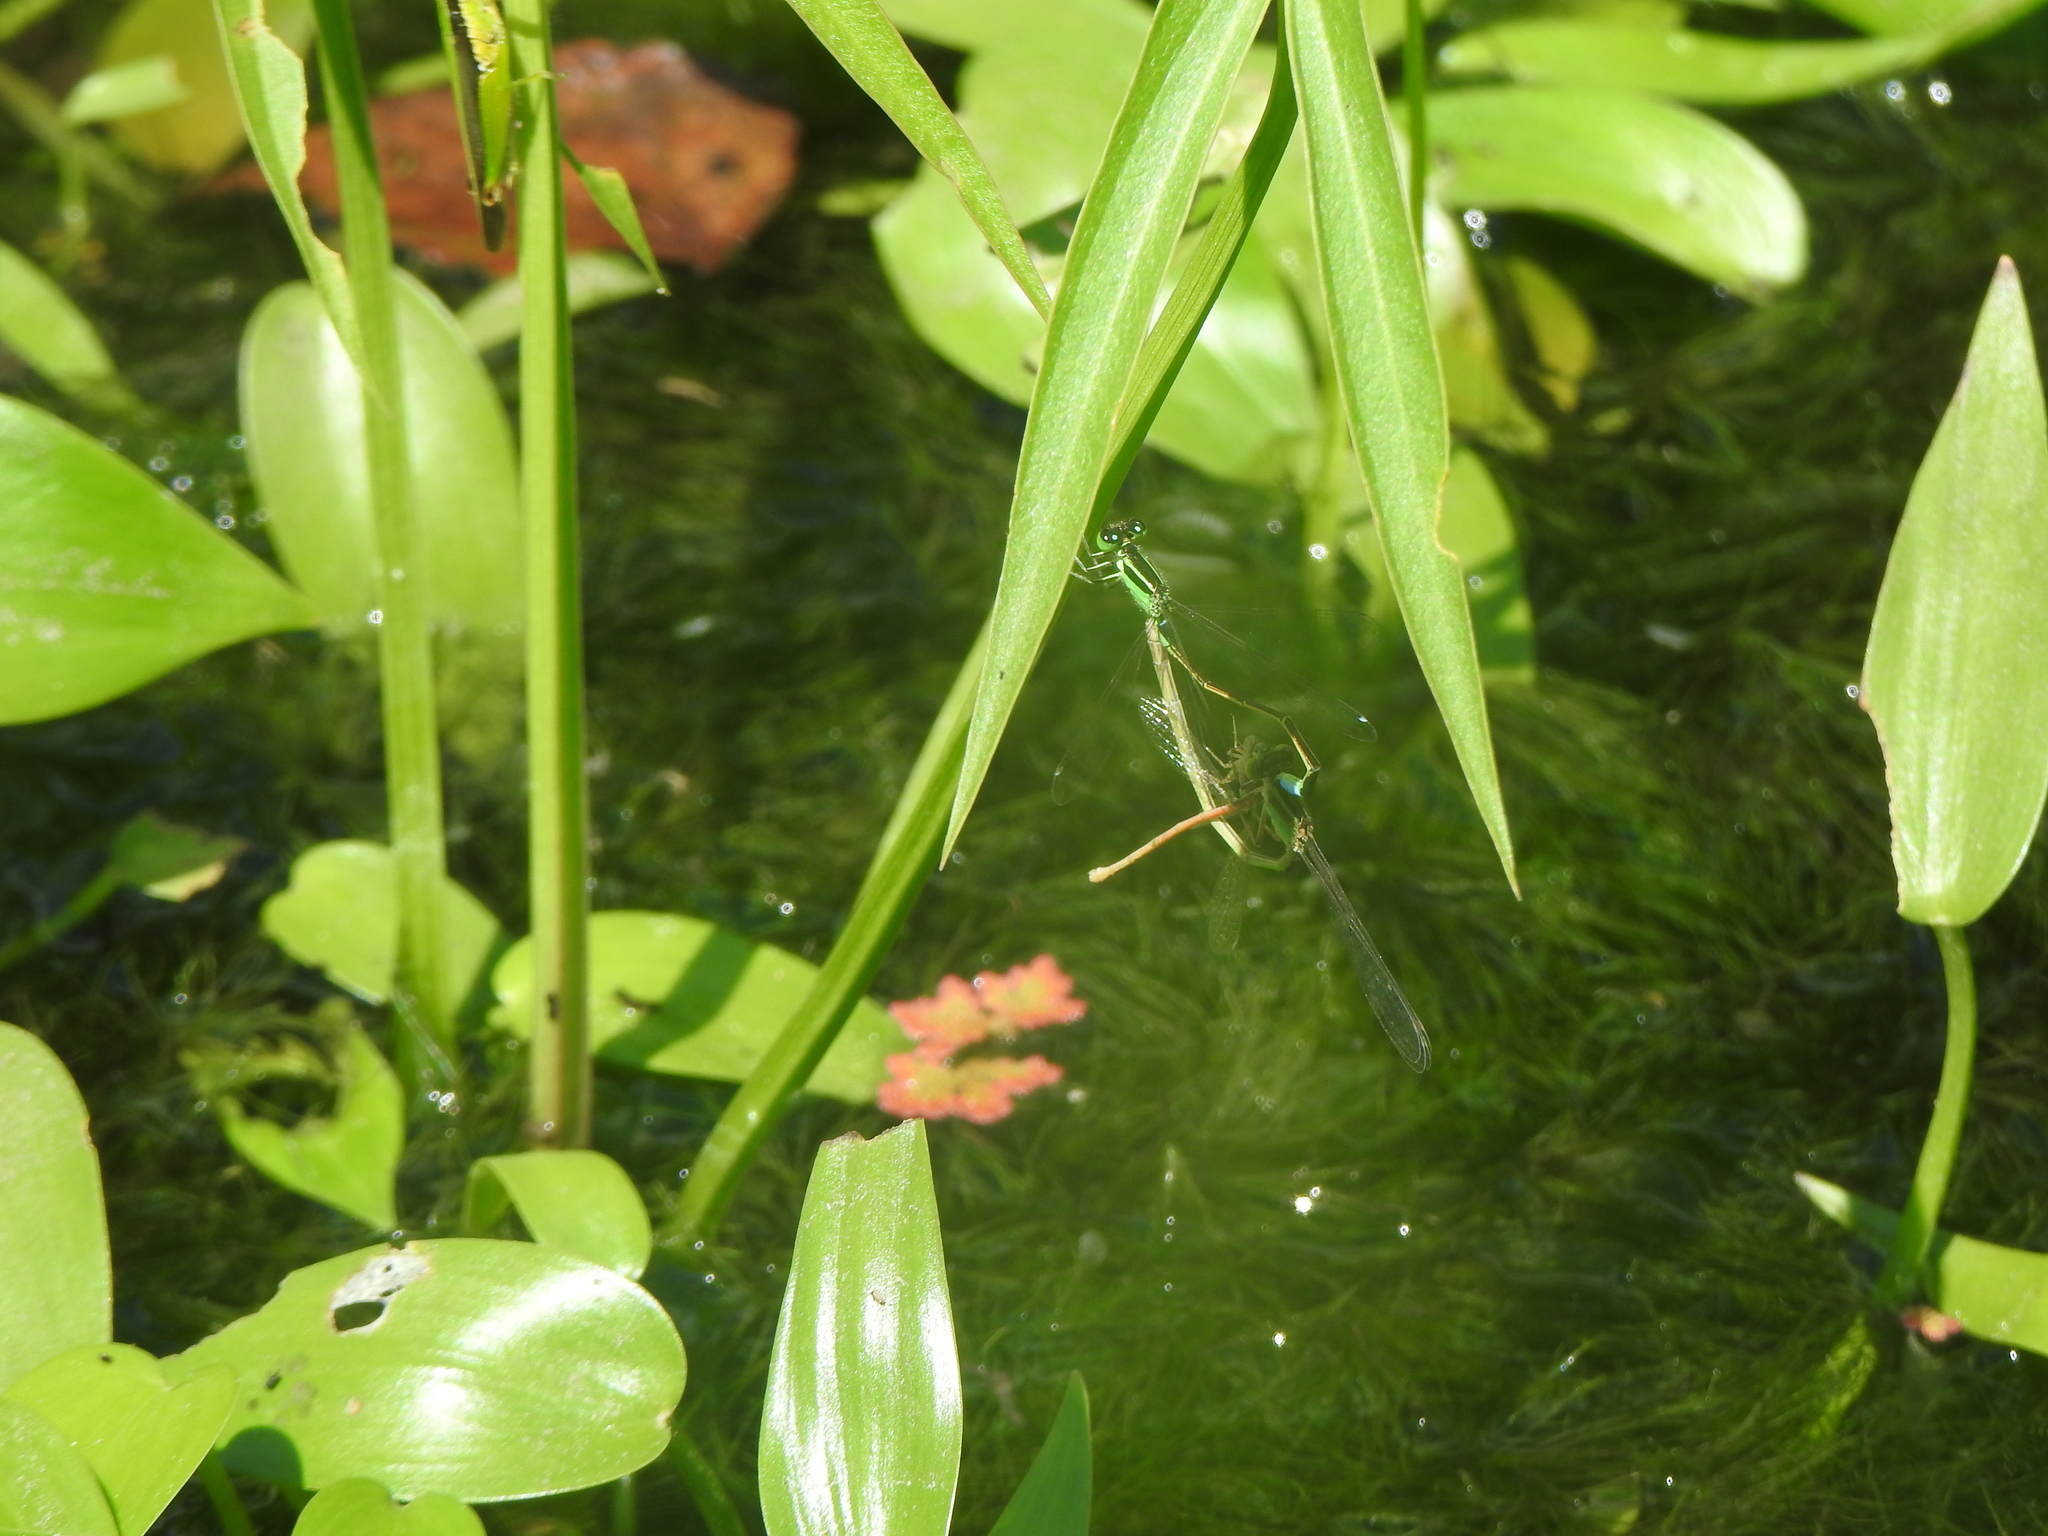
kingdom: Animalia
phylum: Arthropoda
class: Insecta
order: Odonata
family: Coenagrionidae
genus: Ischnura
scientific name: Ischnura senegalensis
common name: Tropical bluetail
